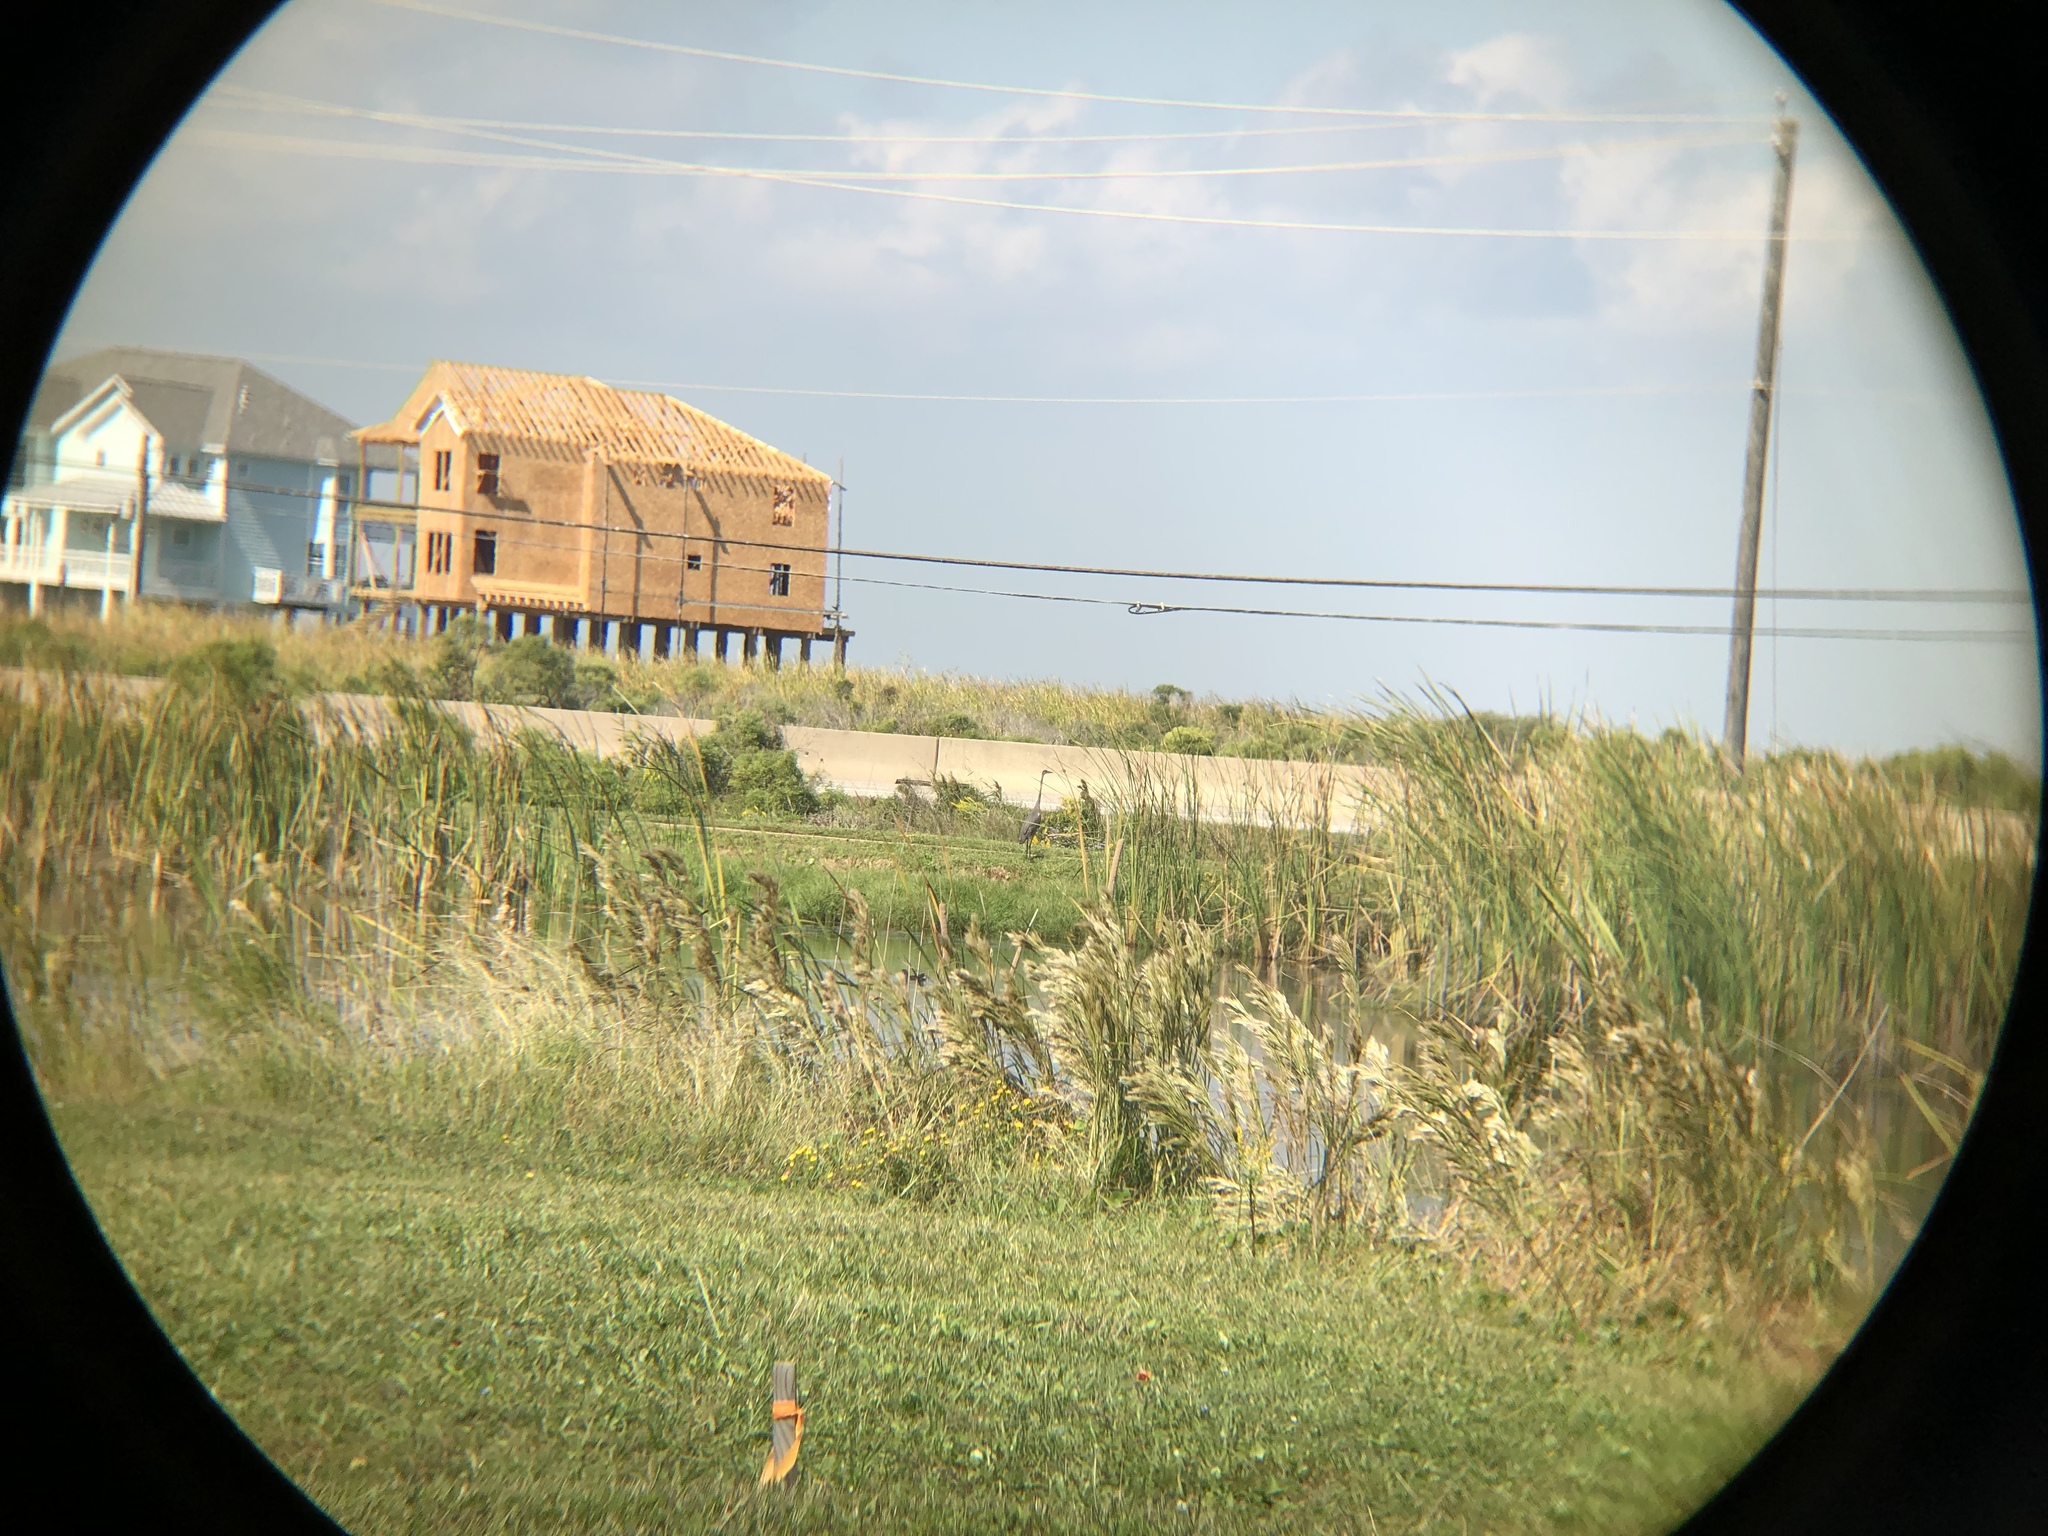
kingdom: Animalia
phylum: Chordata
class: Aves
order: Pelecaniformes
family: Ardeidae
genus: Ardea
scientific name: Ardea herodias
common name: Great blue heron
